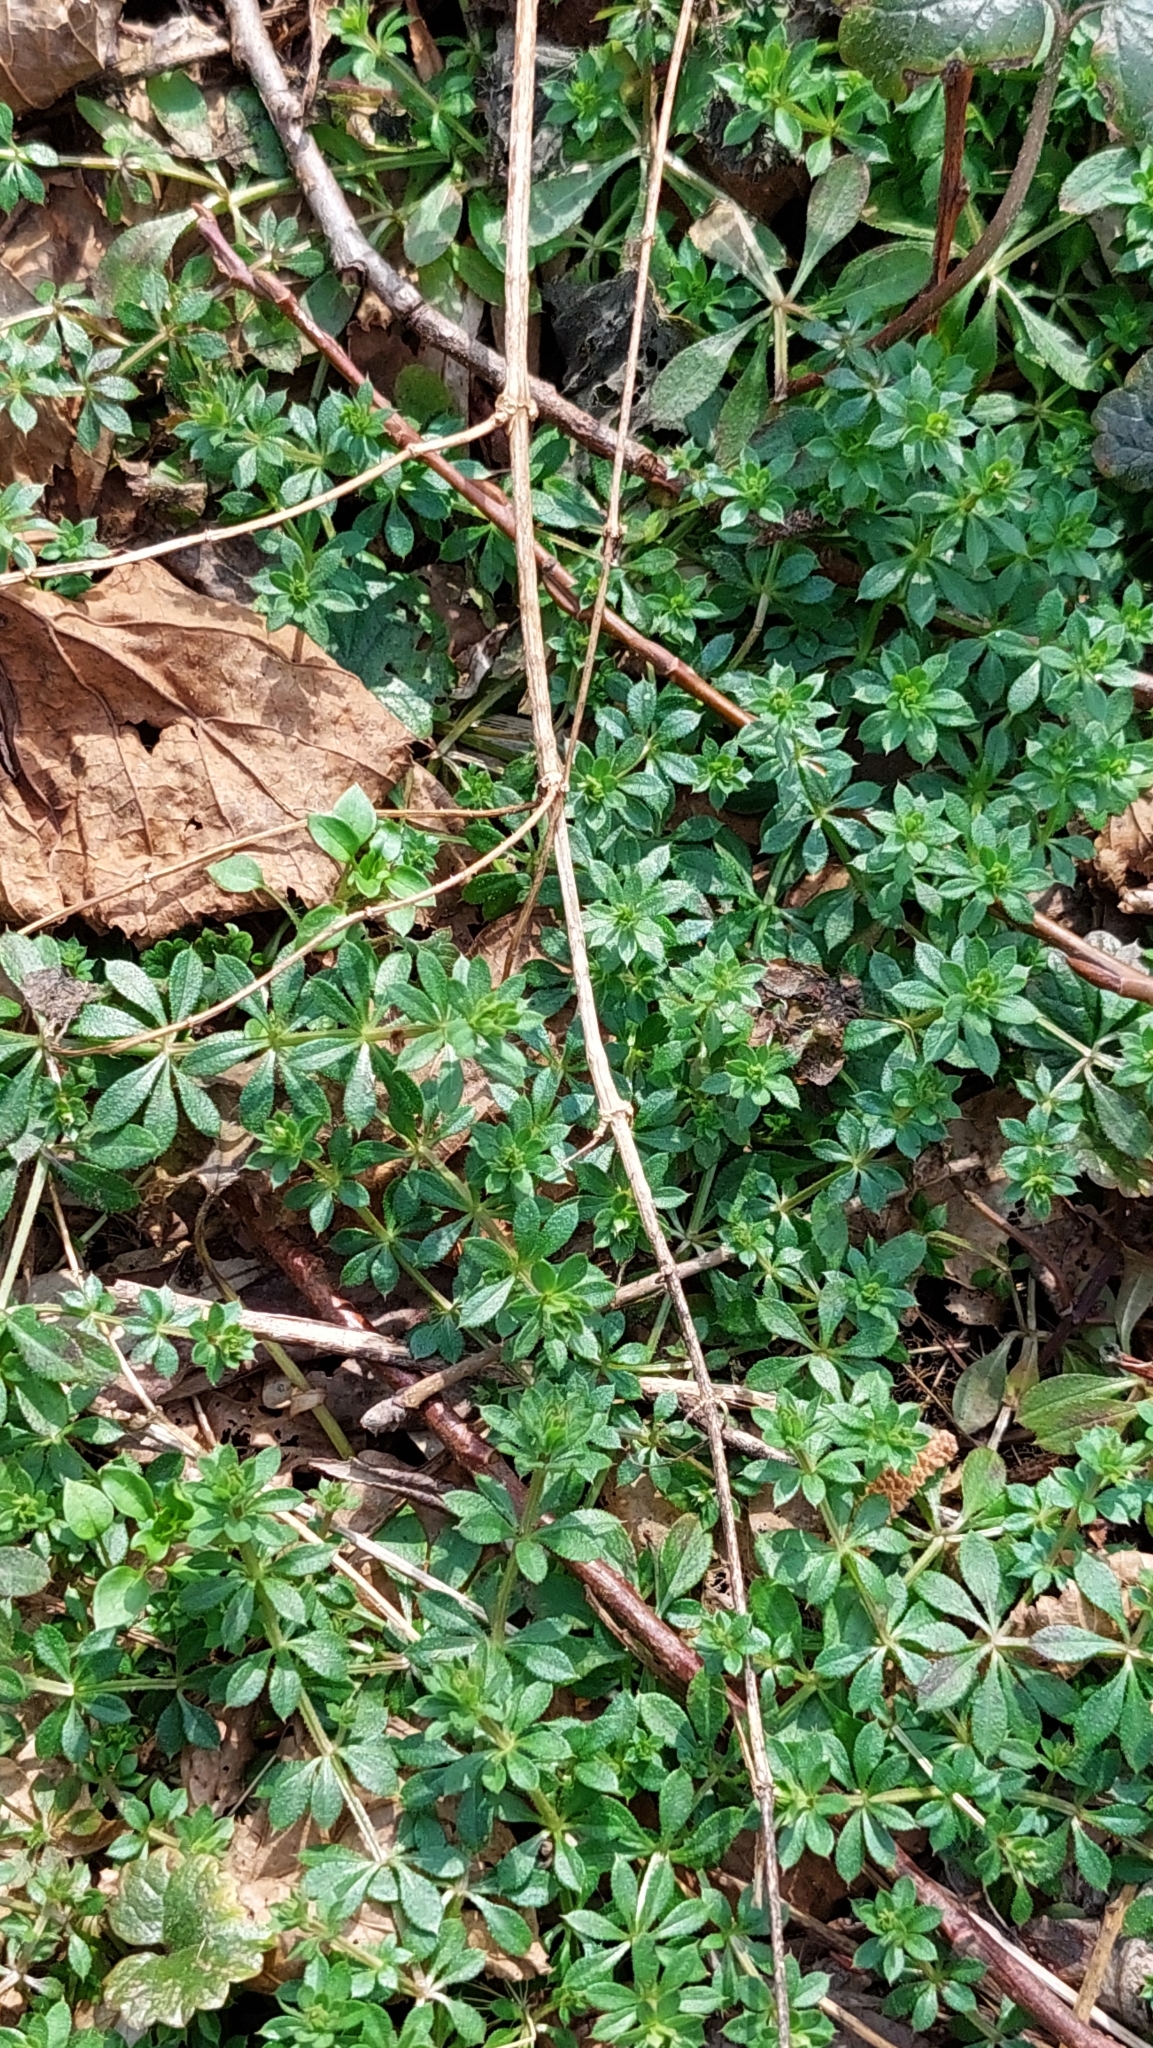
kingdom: Plantae
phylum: Tracheophyta
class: Magnoliopsida
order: Gentianales
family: Rubiaceae
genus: Galium
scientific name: Galium aparine
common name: Cleavers
